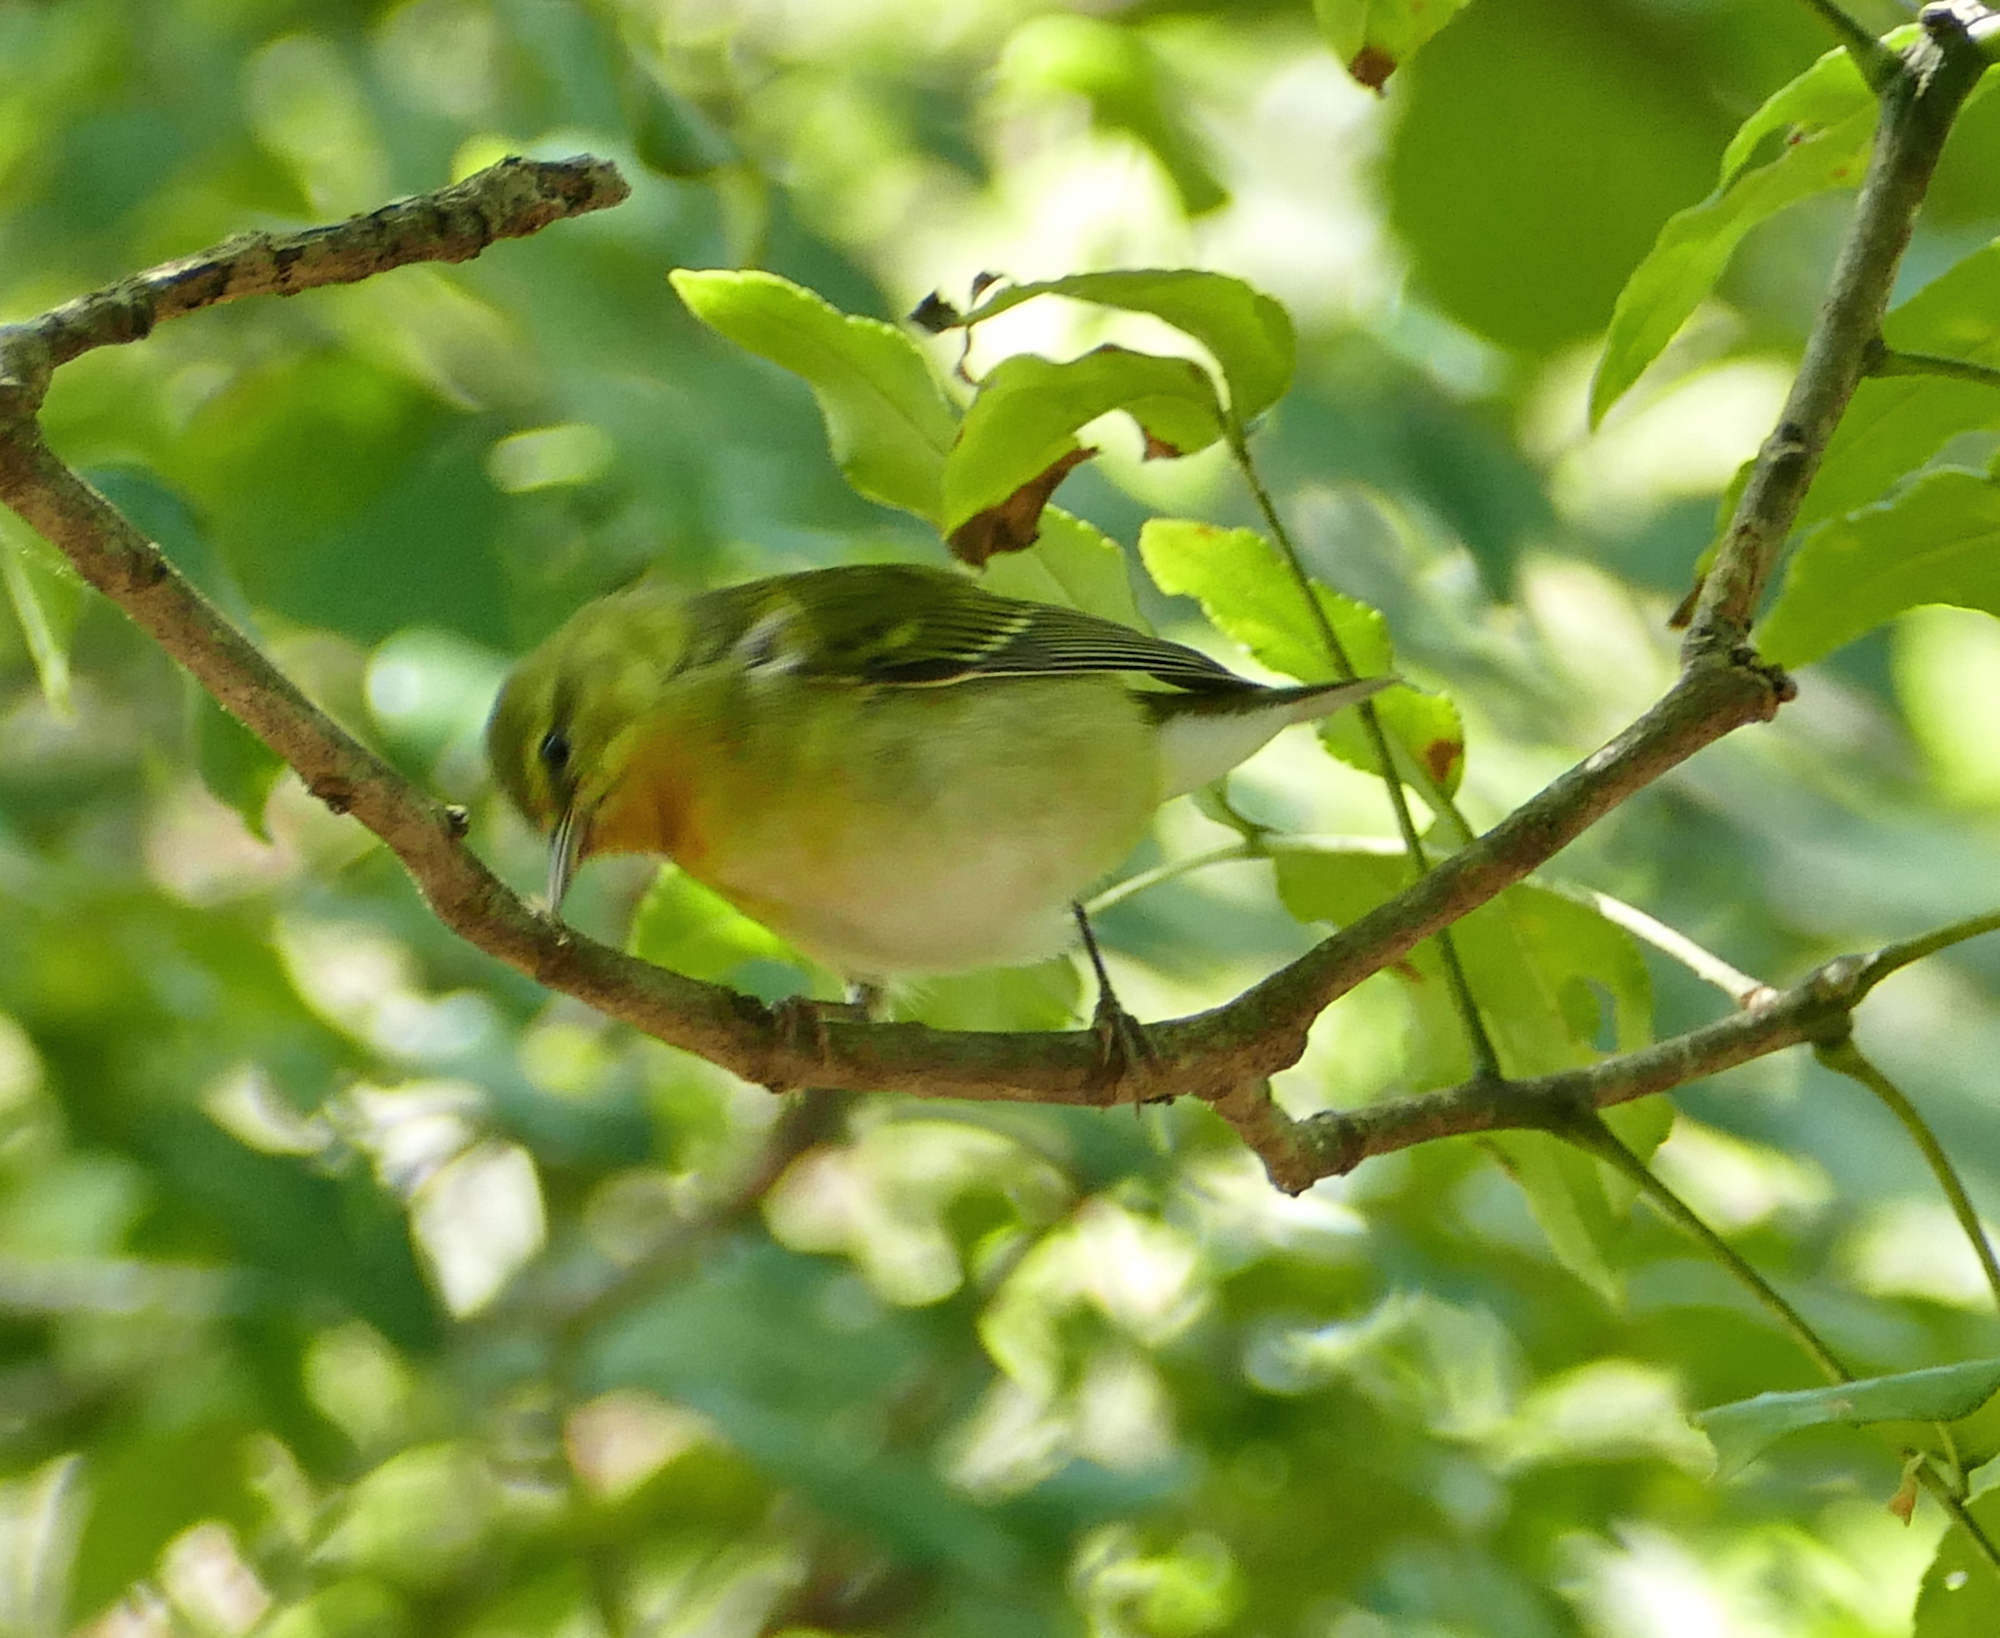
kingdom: Animalia
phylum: Chordata
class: Aves
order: Passeriformes
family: Parulidae
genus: Leiothlypis
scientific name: Leiothlypis peregrina
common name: Tennessee warbler
